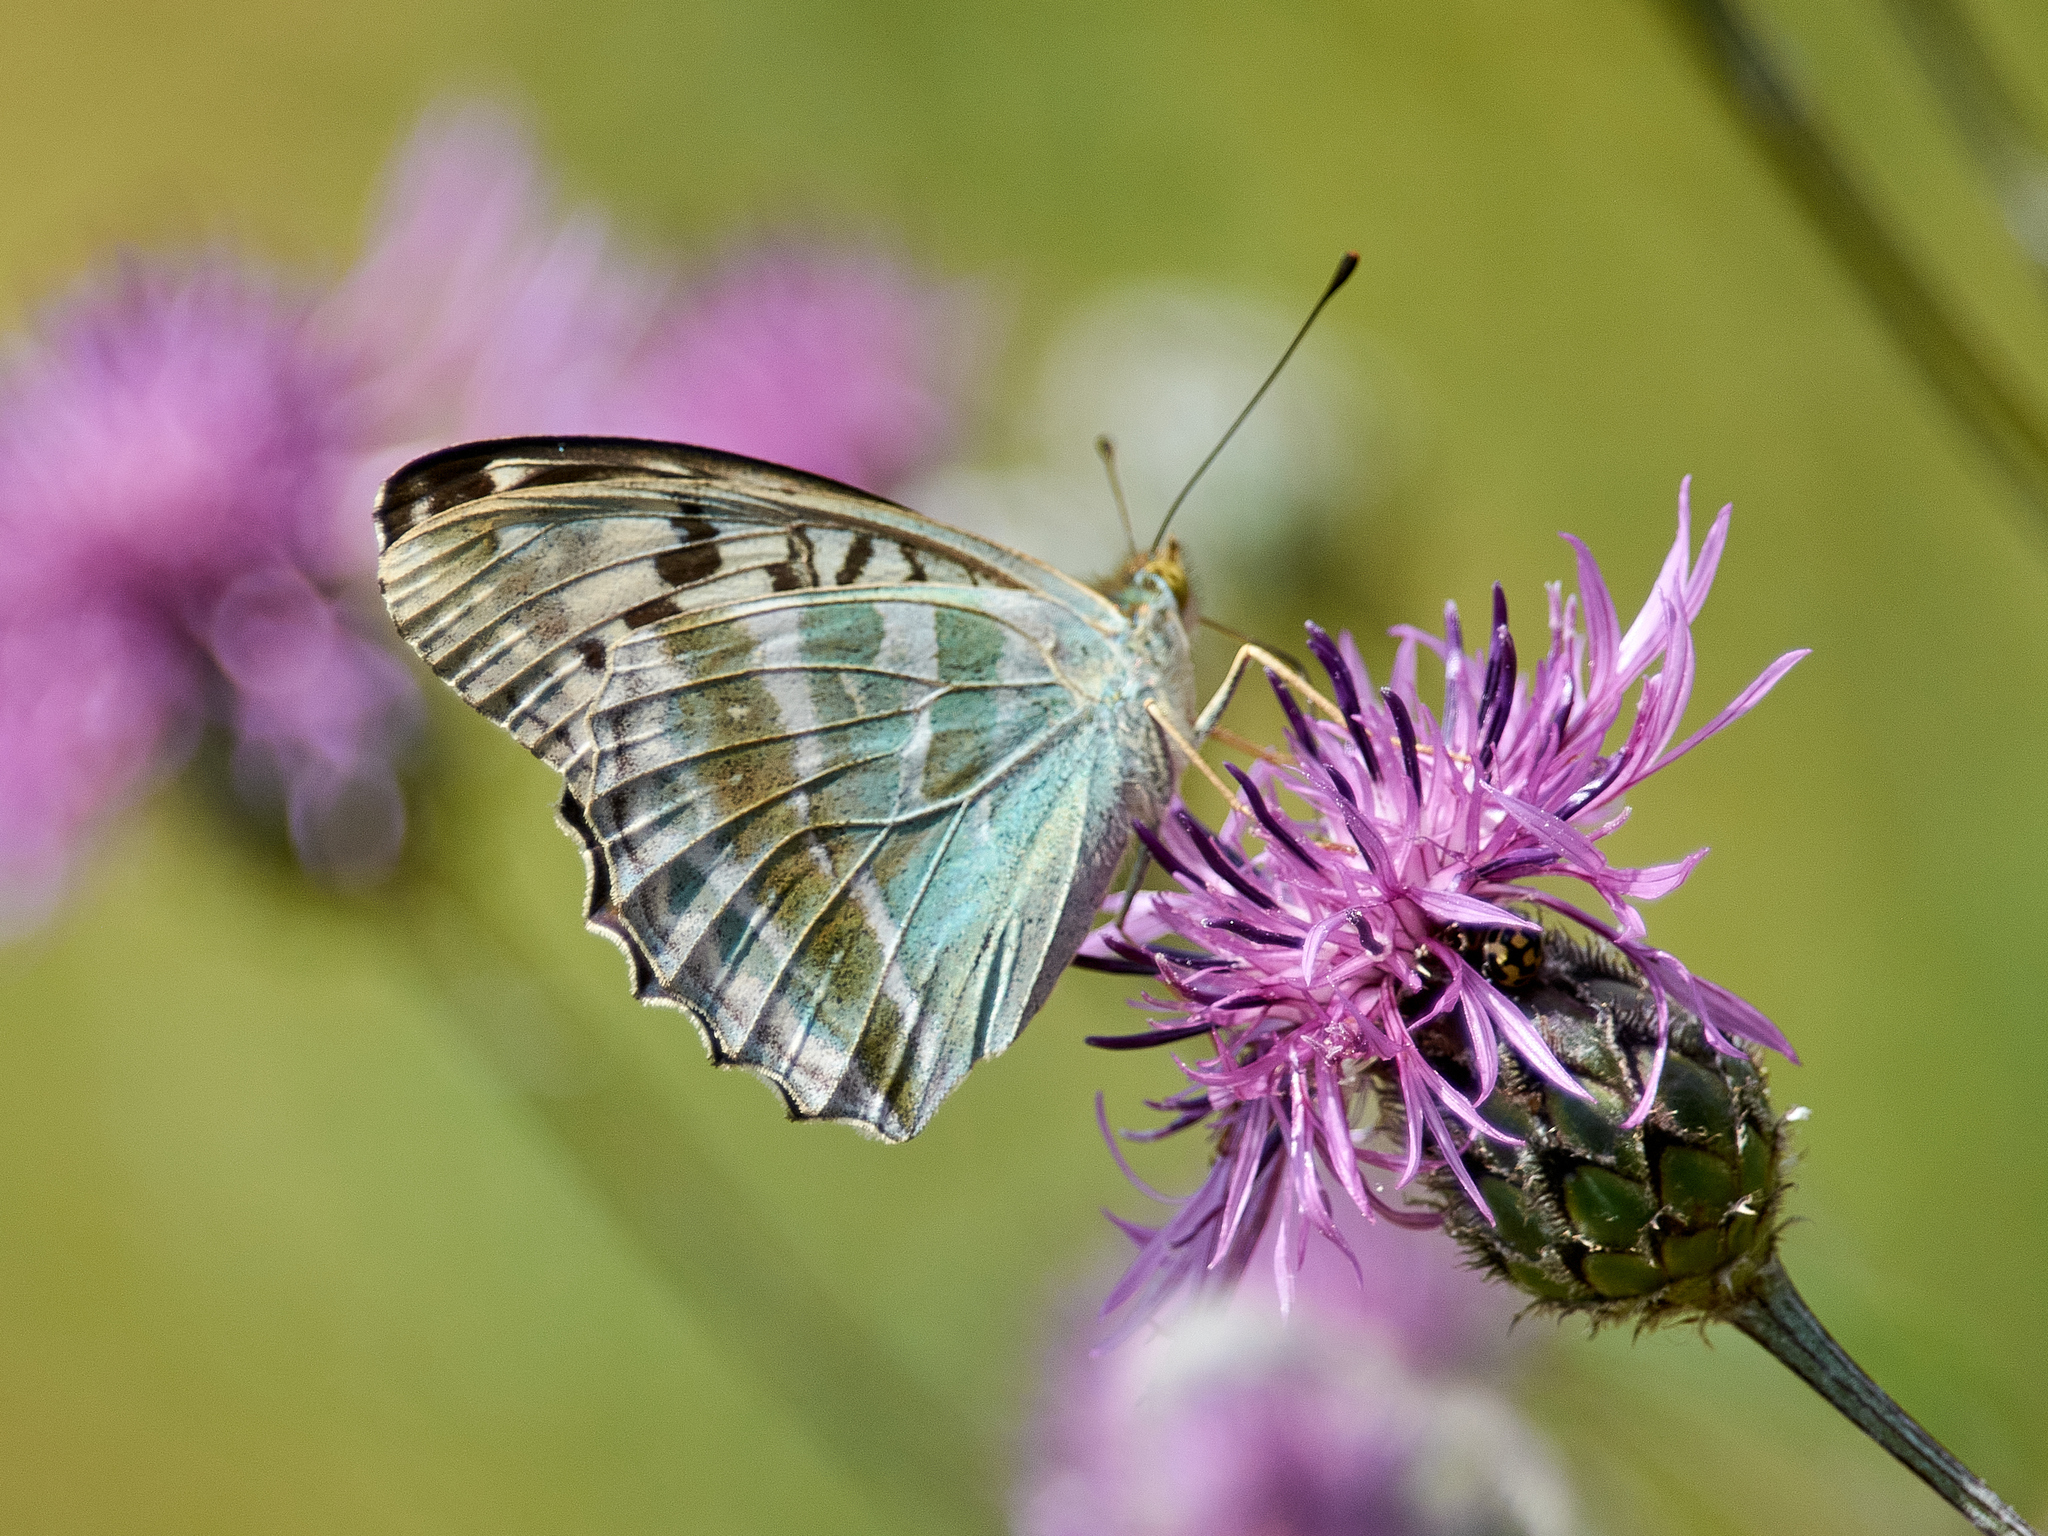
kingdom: Animalia
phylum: Arthropoda
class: Insecta
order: Lepidoptera
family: Nymphalidae
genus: Argynnis
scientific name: Argynnis paphia
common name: Silver-washed fritillary
